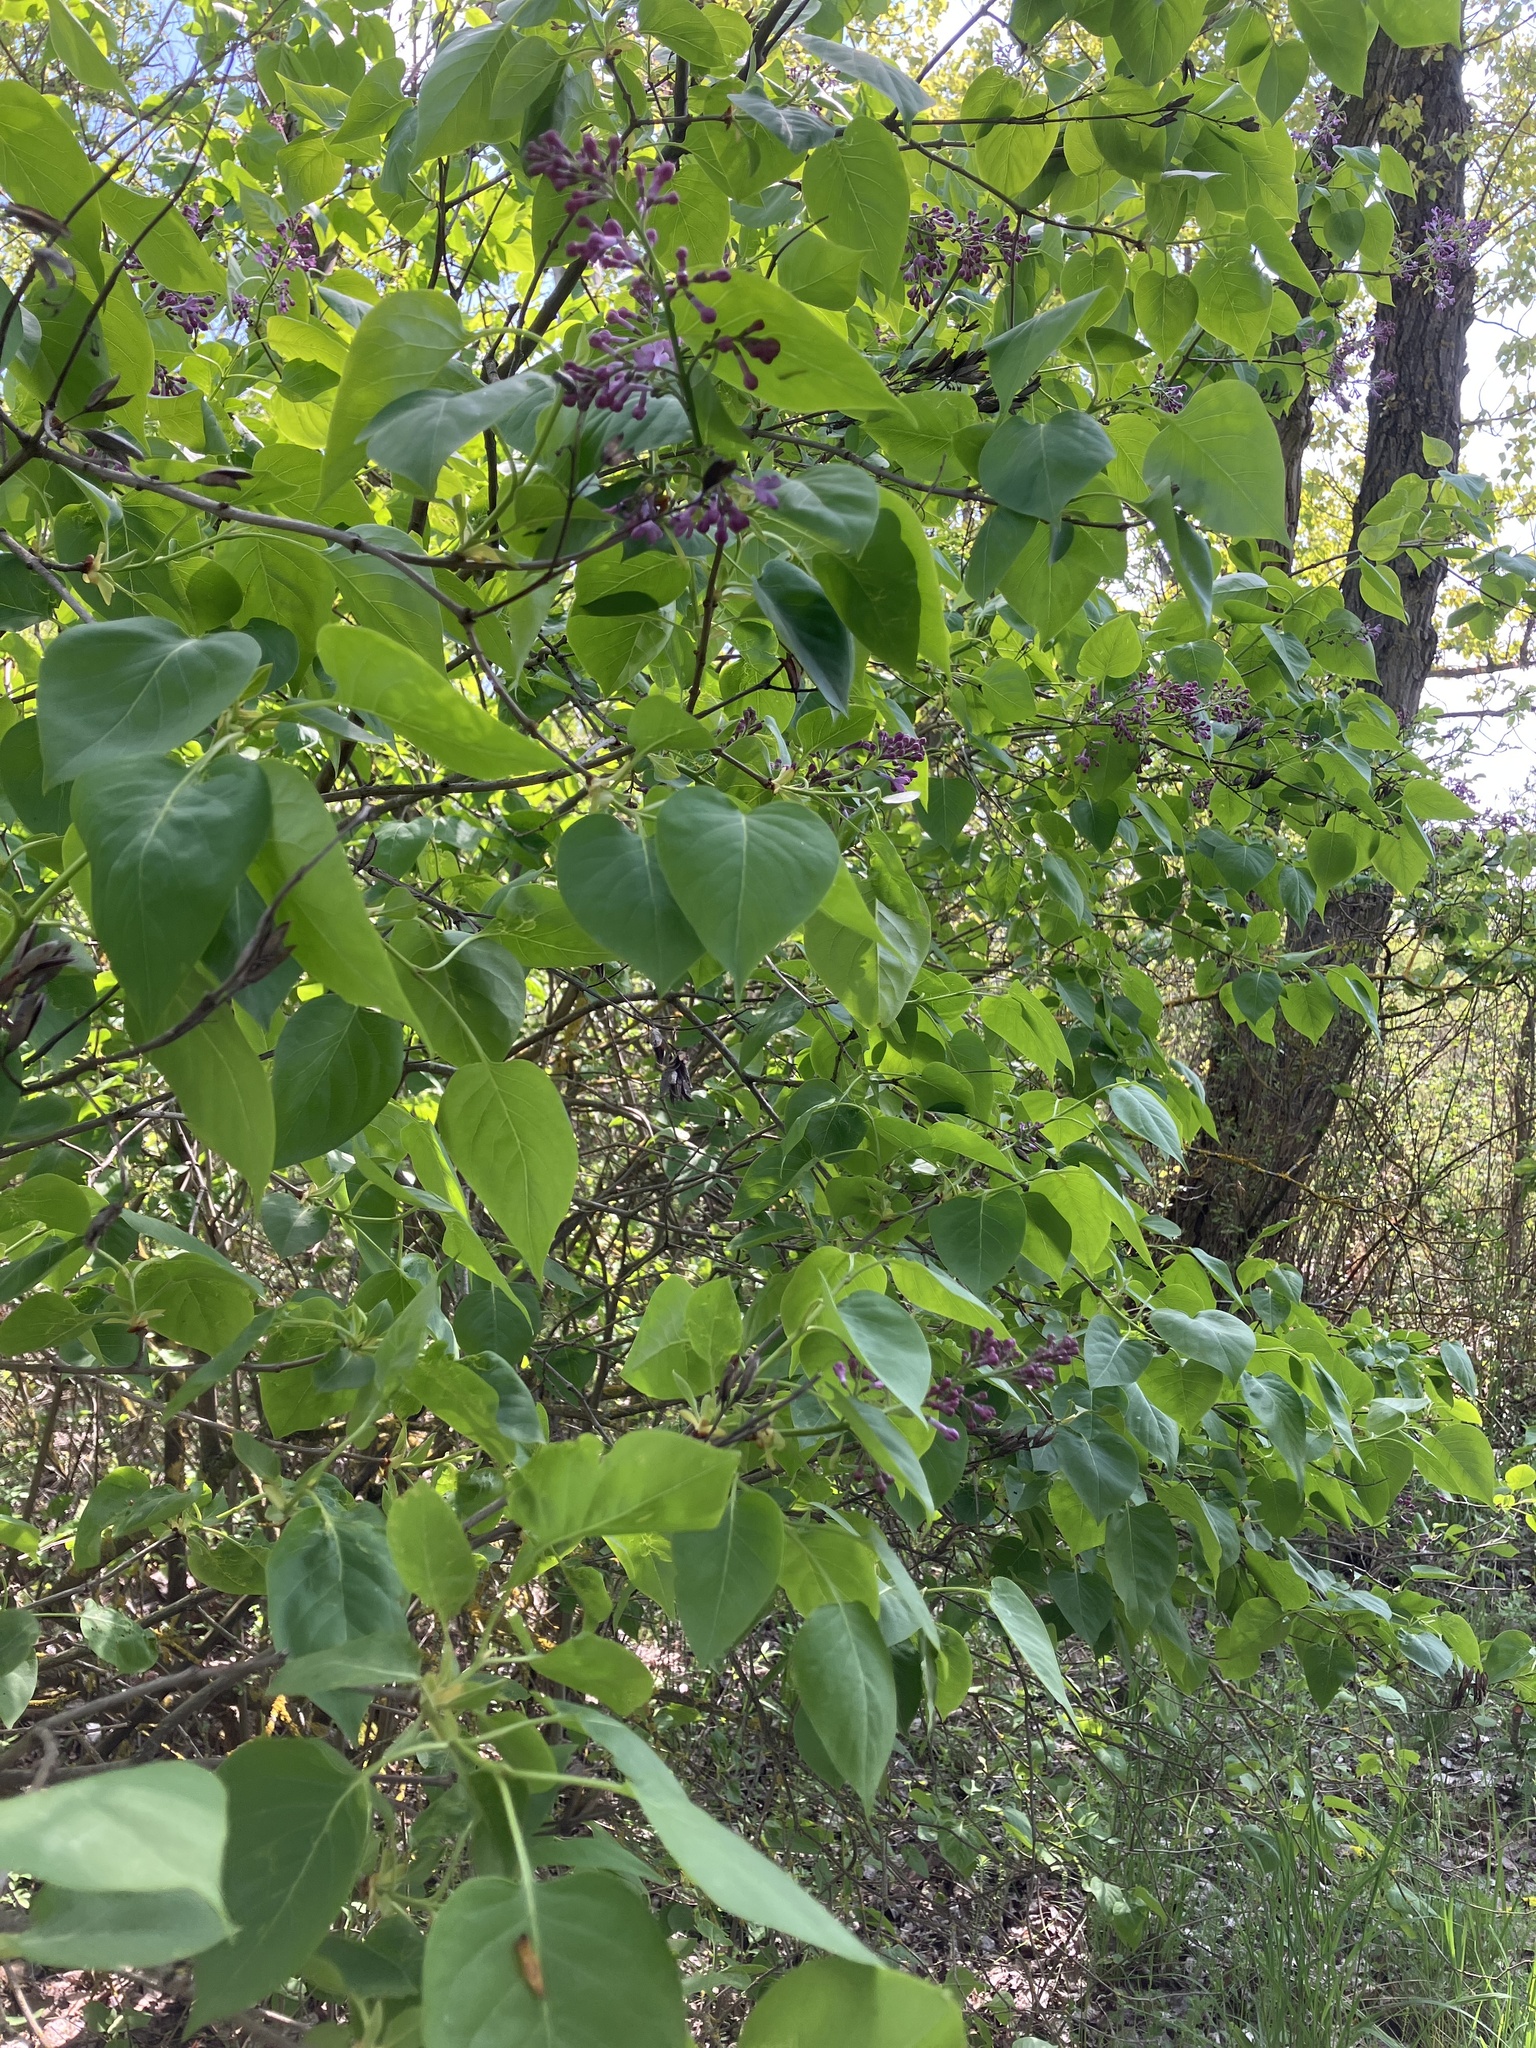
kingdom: Plantae
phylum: Tracheophyta
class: Magnoliopsida
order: Lamiales
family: Oleaceae
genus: Syringa
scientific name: Syringa vulgaris
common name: Common lilac
